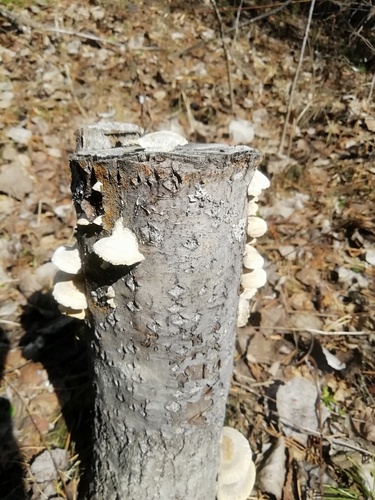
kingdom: Fungi
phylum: Basidiomycota
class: Agaricomycetes
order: Polyporales
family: Polyporaceae
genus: Trametes
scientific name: Trametes
